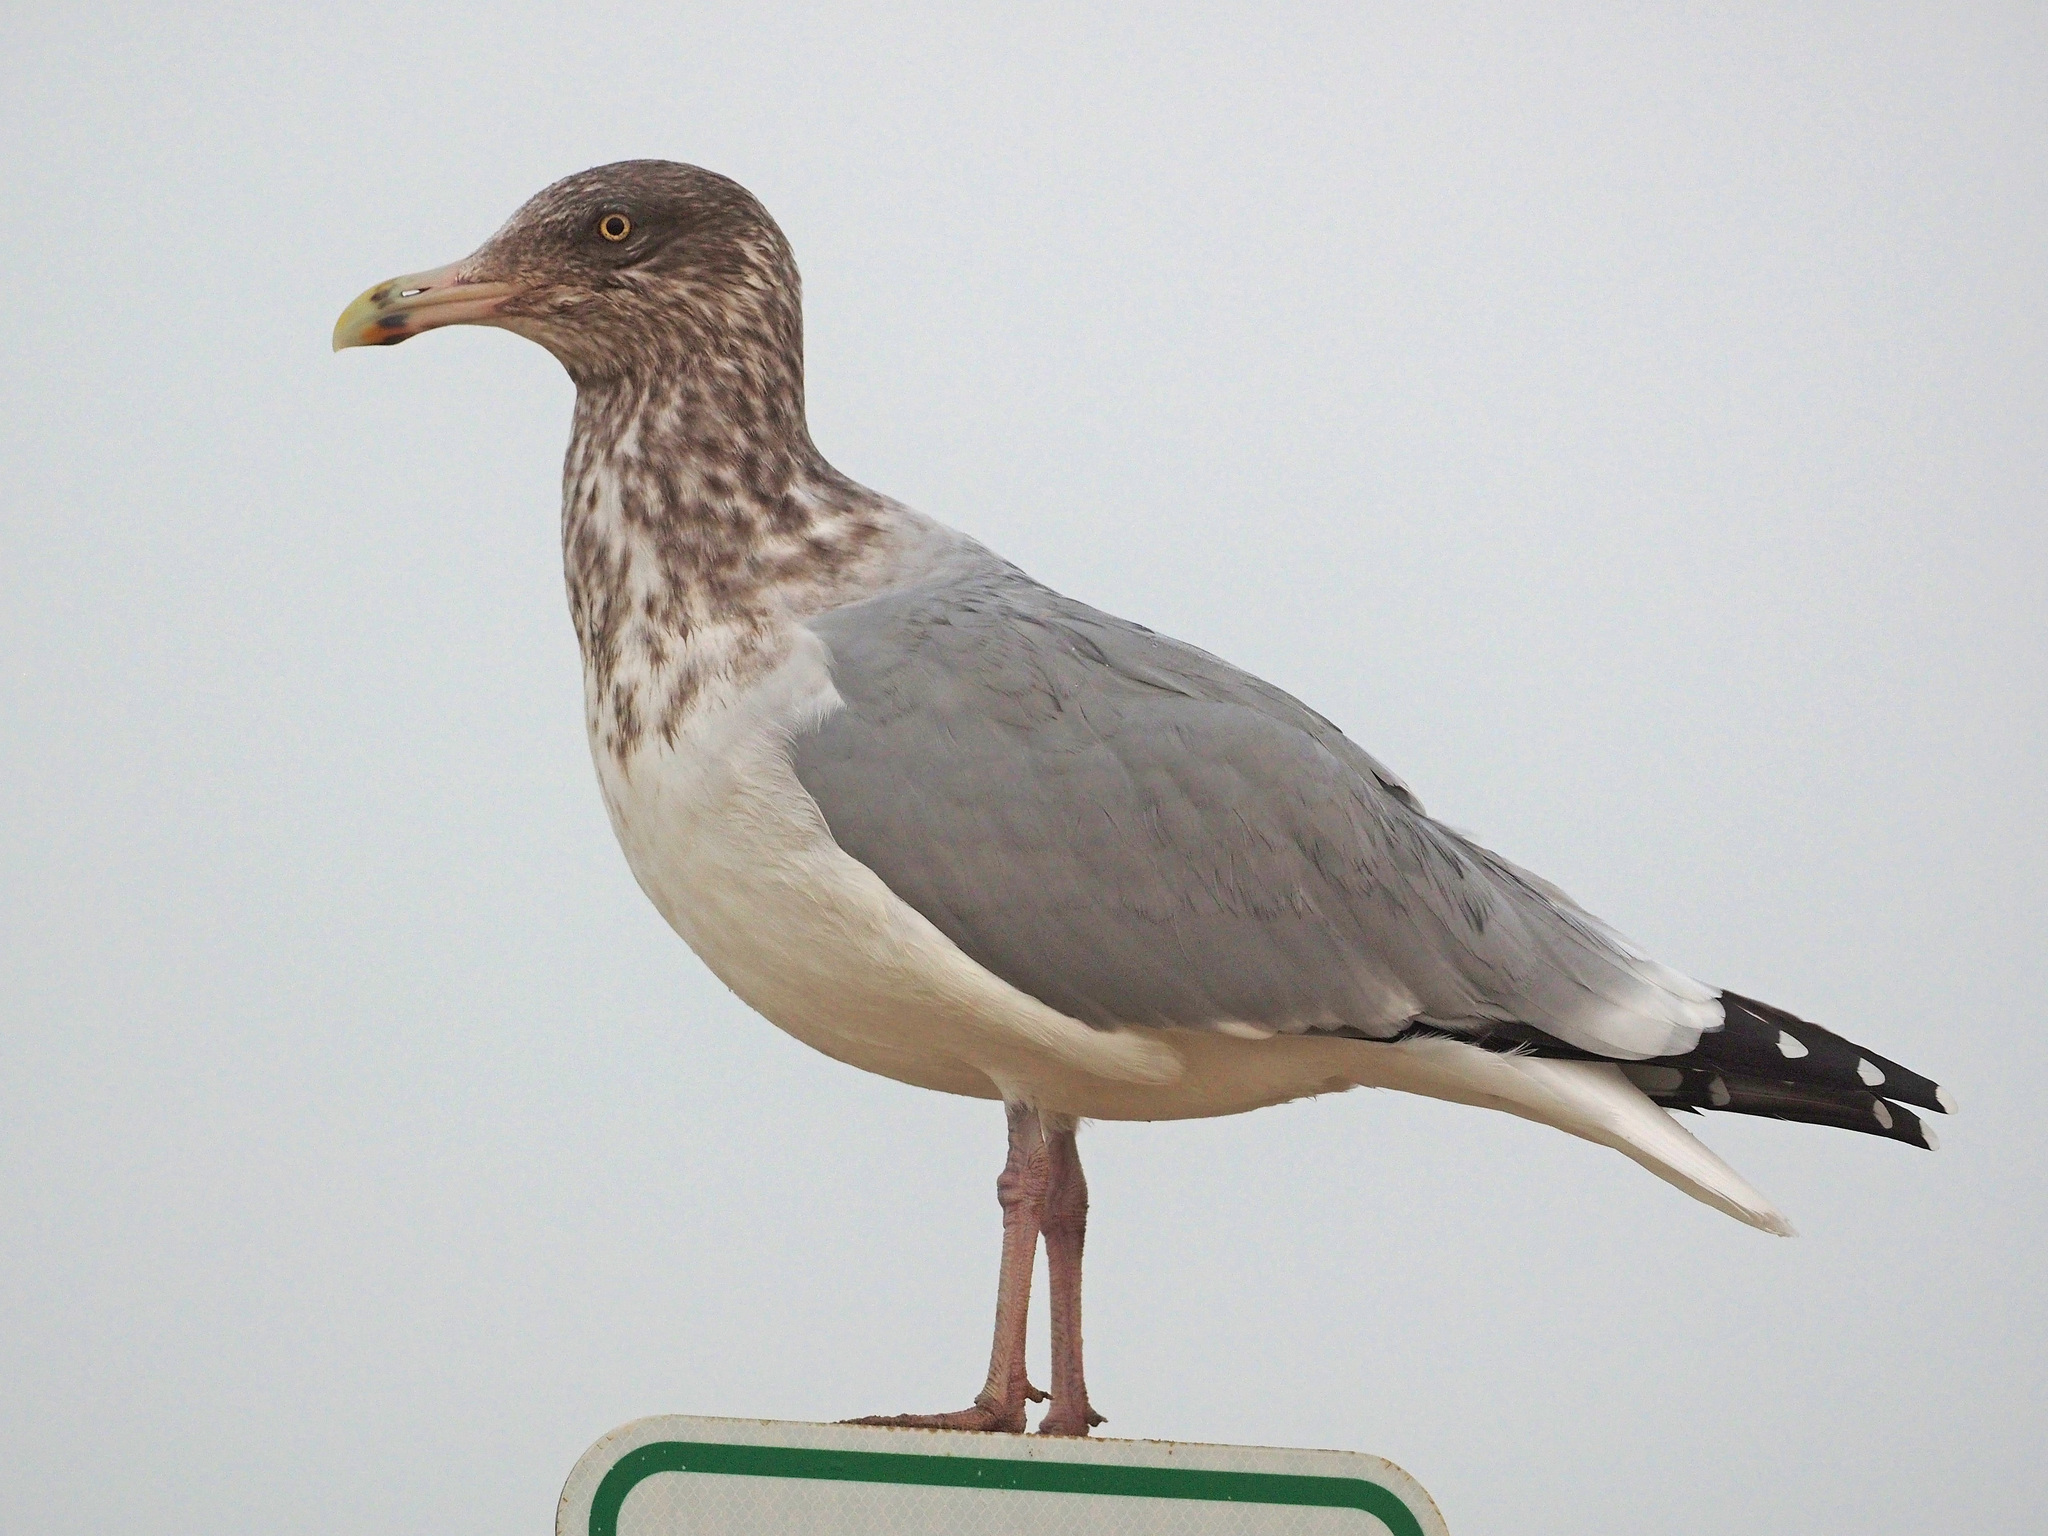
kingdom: Animalia
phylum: Chordata
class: Aves
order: Charadriiformes
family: Laridae
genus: Larus
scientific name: Larus argentatus
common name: Herring gull
